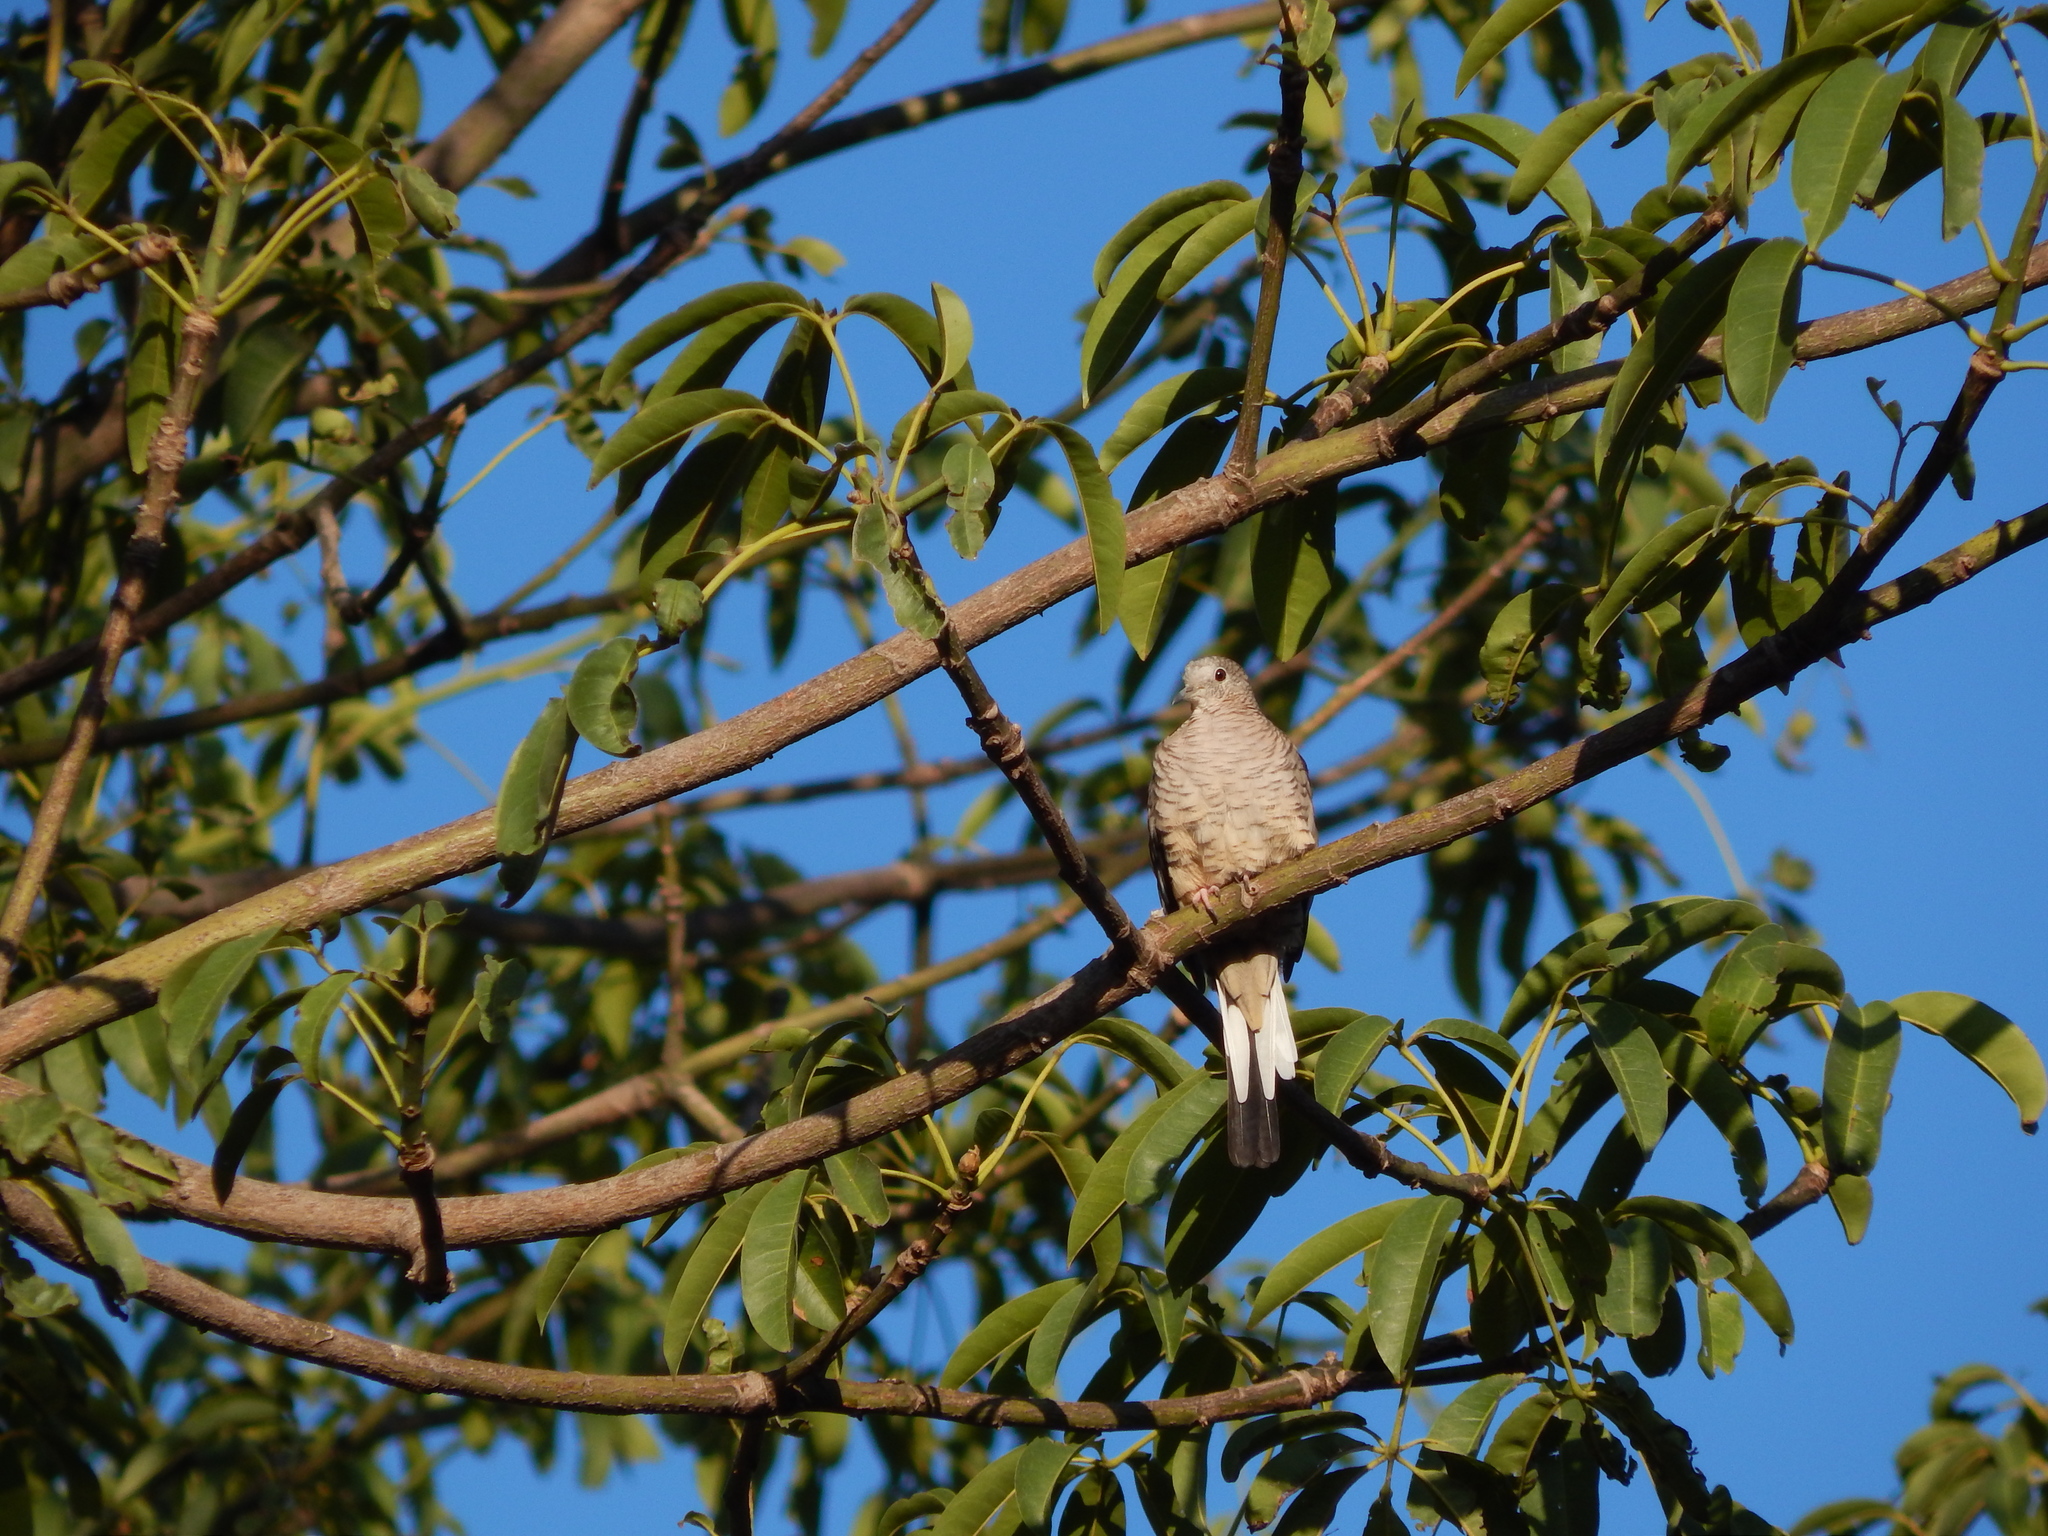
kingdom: Animalia
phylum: Chordata
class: Aves
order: Columbiformes
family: Columbidae
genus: Columbina
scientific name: Columbina inca
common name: Inca dove
